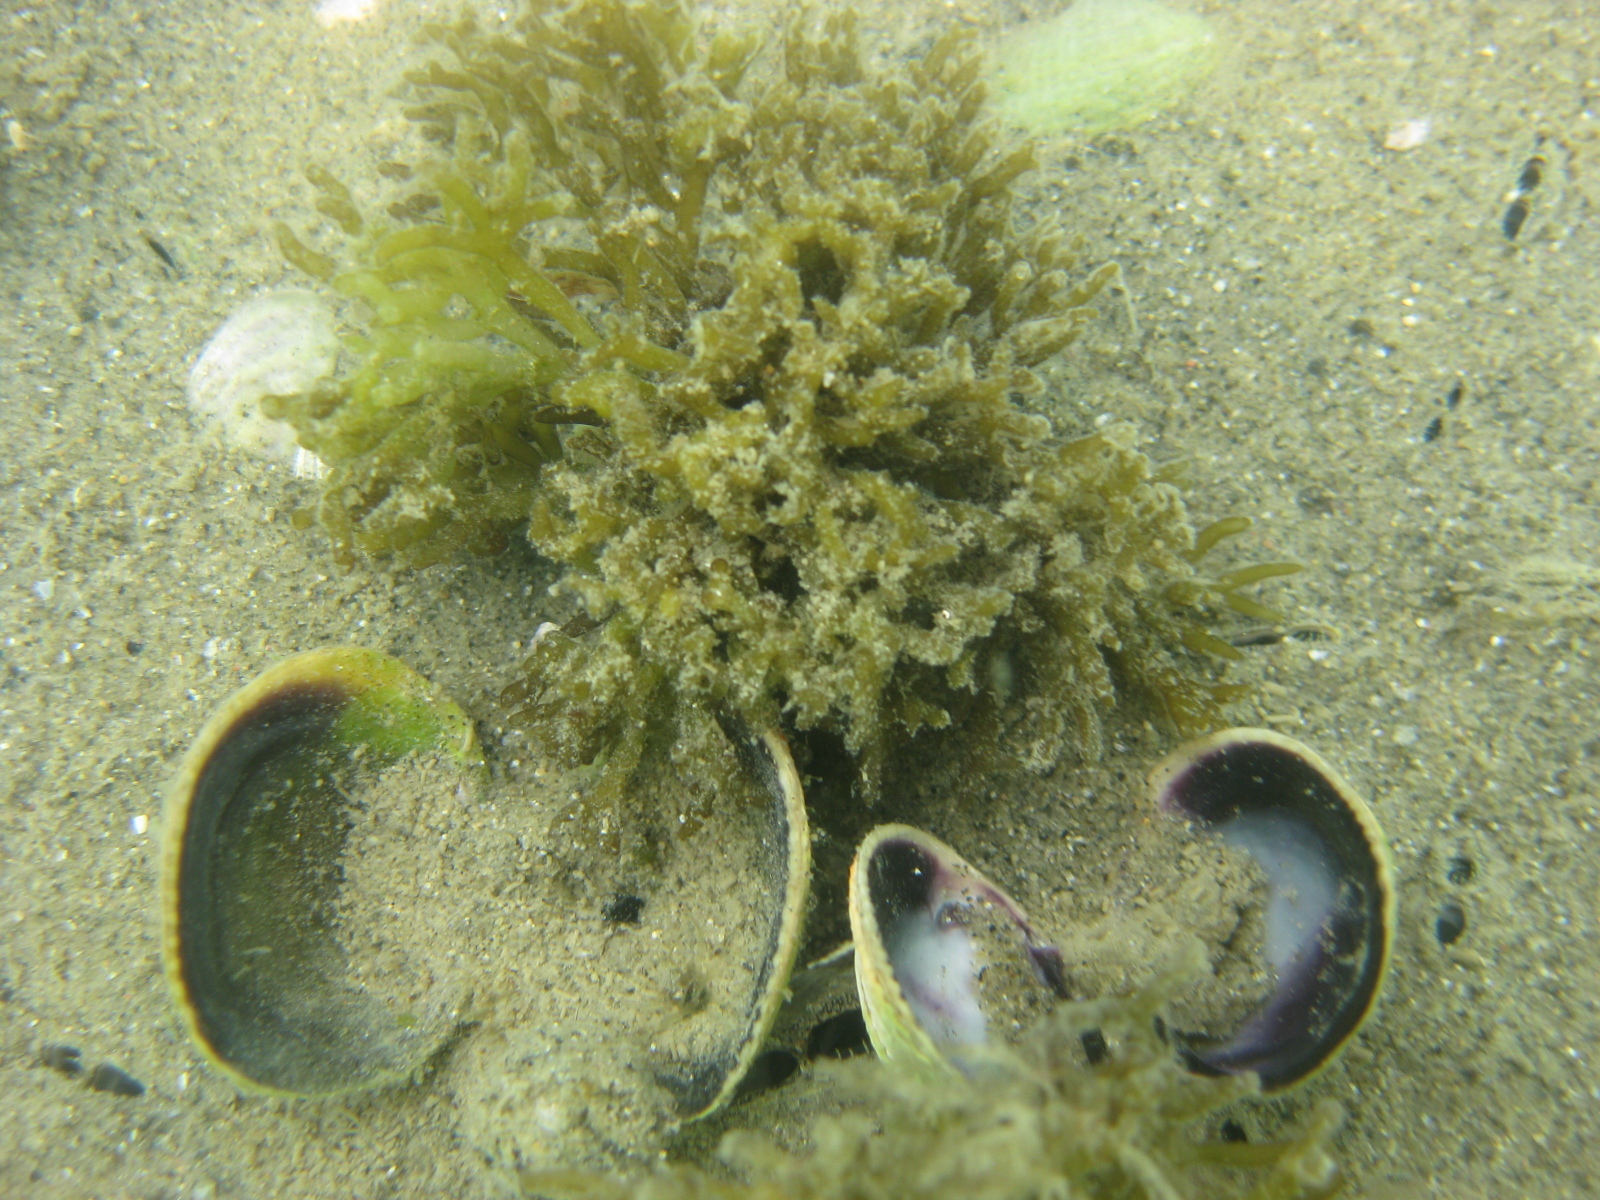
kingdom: Plantae
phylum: Chlorophyta
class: Ulvophyceae
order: Bryopsidales
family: Codiaceae
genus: Codium
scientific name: Codium fragile
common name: Dead man's fingers
